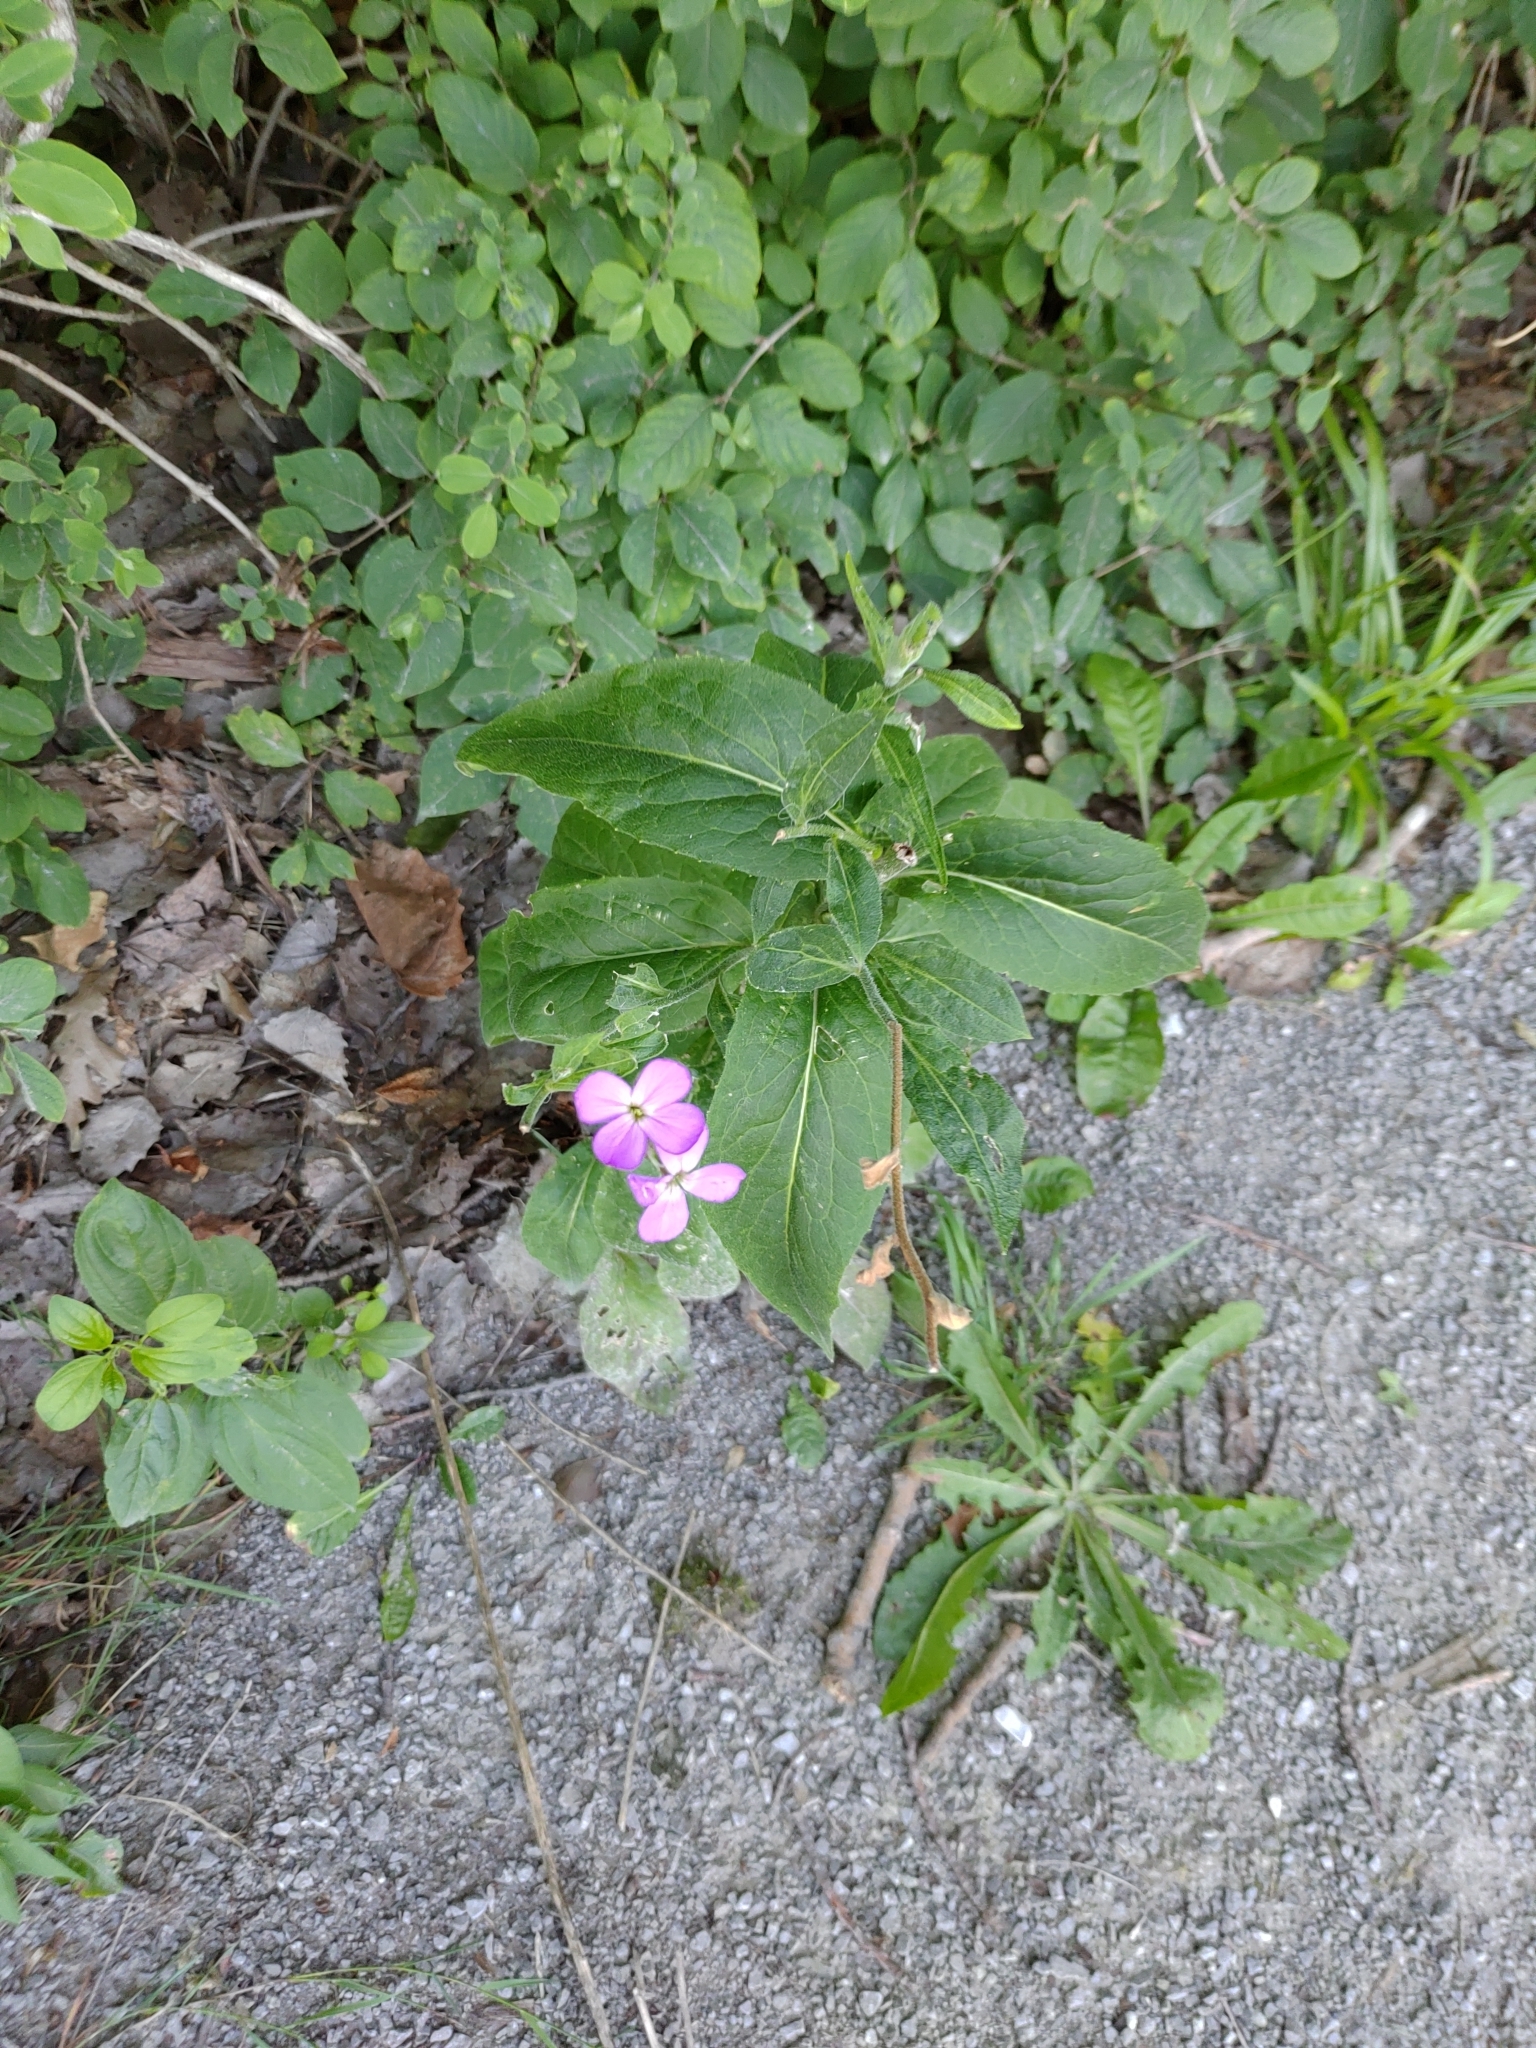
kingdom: Plantae
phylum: Tracheophyta
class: Magnoliopsida
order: Brassicales
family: Brassicaceae
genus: Hesperis
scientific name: Hesperis matronalis
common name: Dame's-violet
